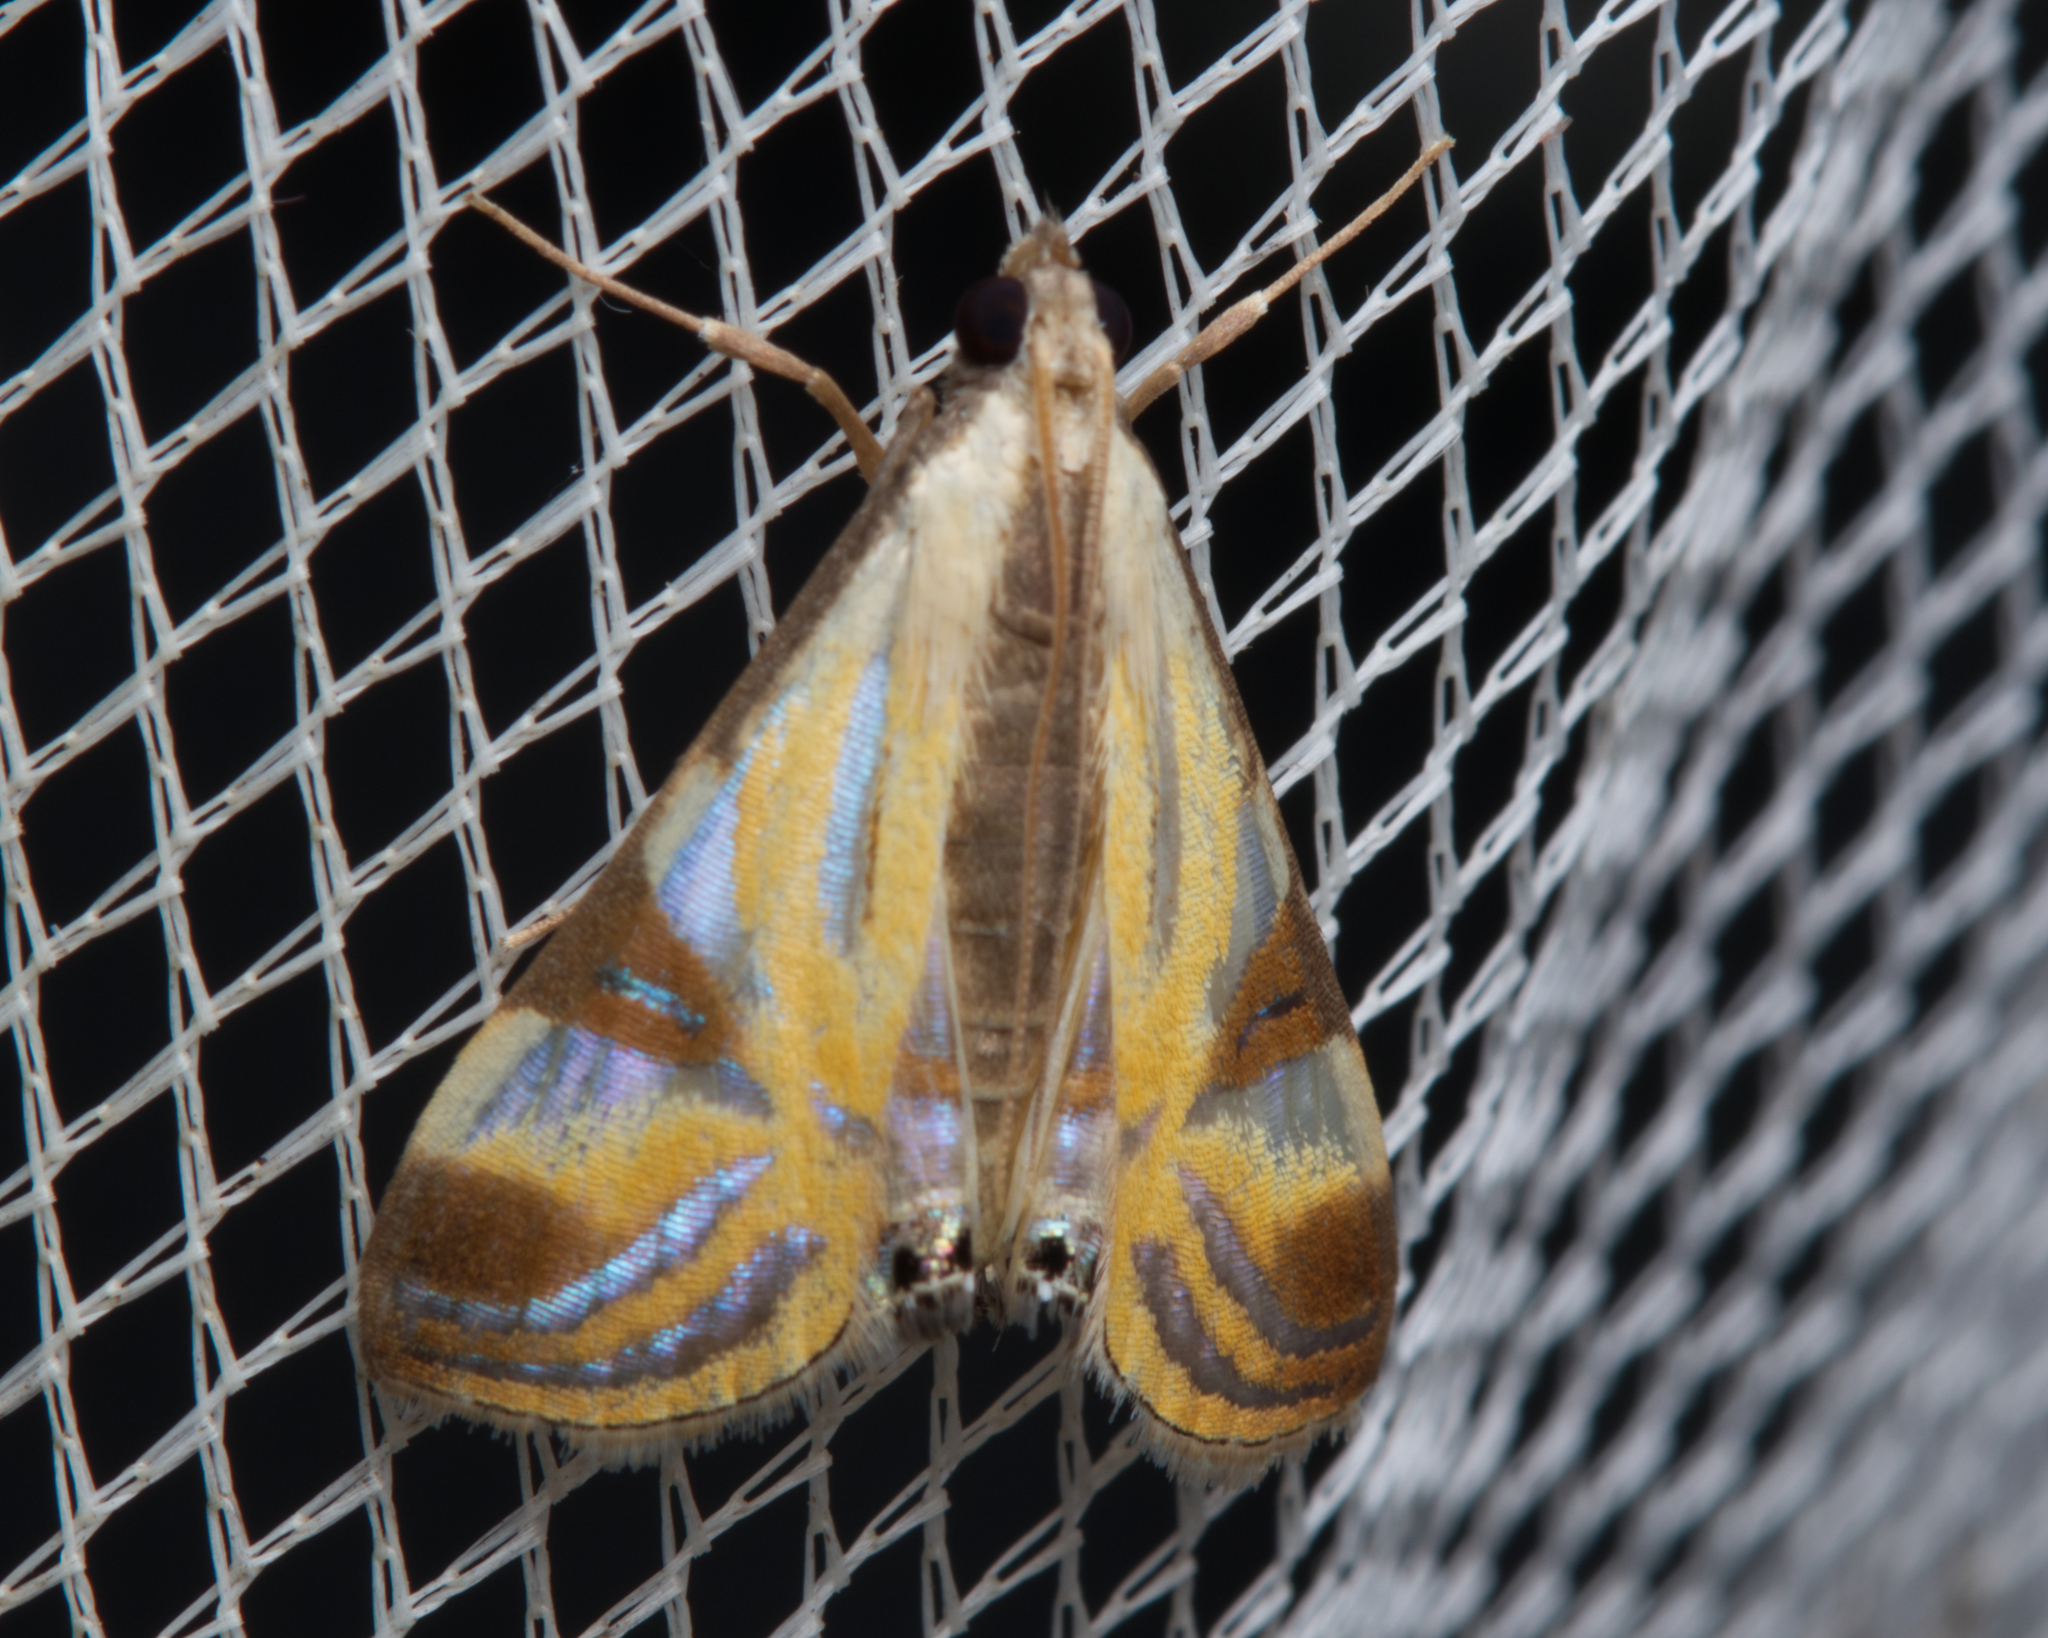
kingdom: Animalia
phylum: Arthropoda
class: Insecta
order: Lepidoptera
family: Crambidae
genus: Talanga
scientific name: Talanga tolumnialis
